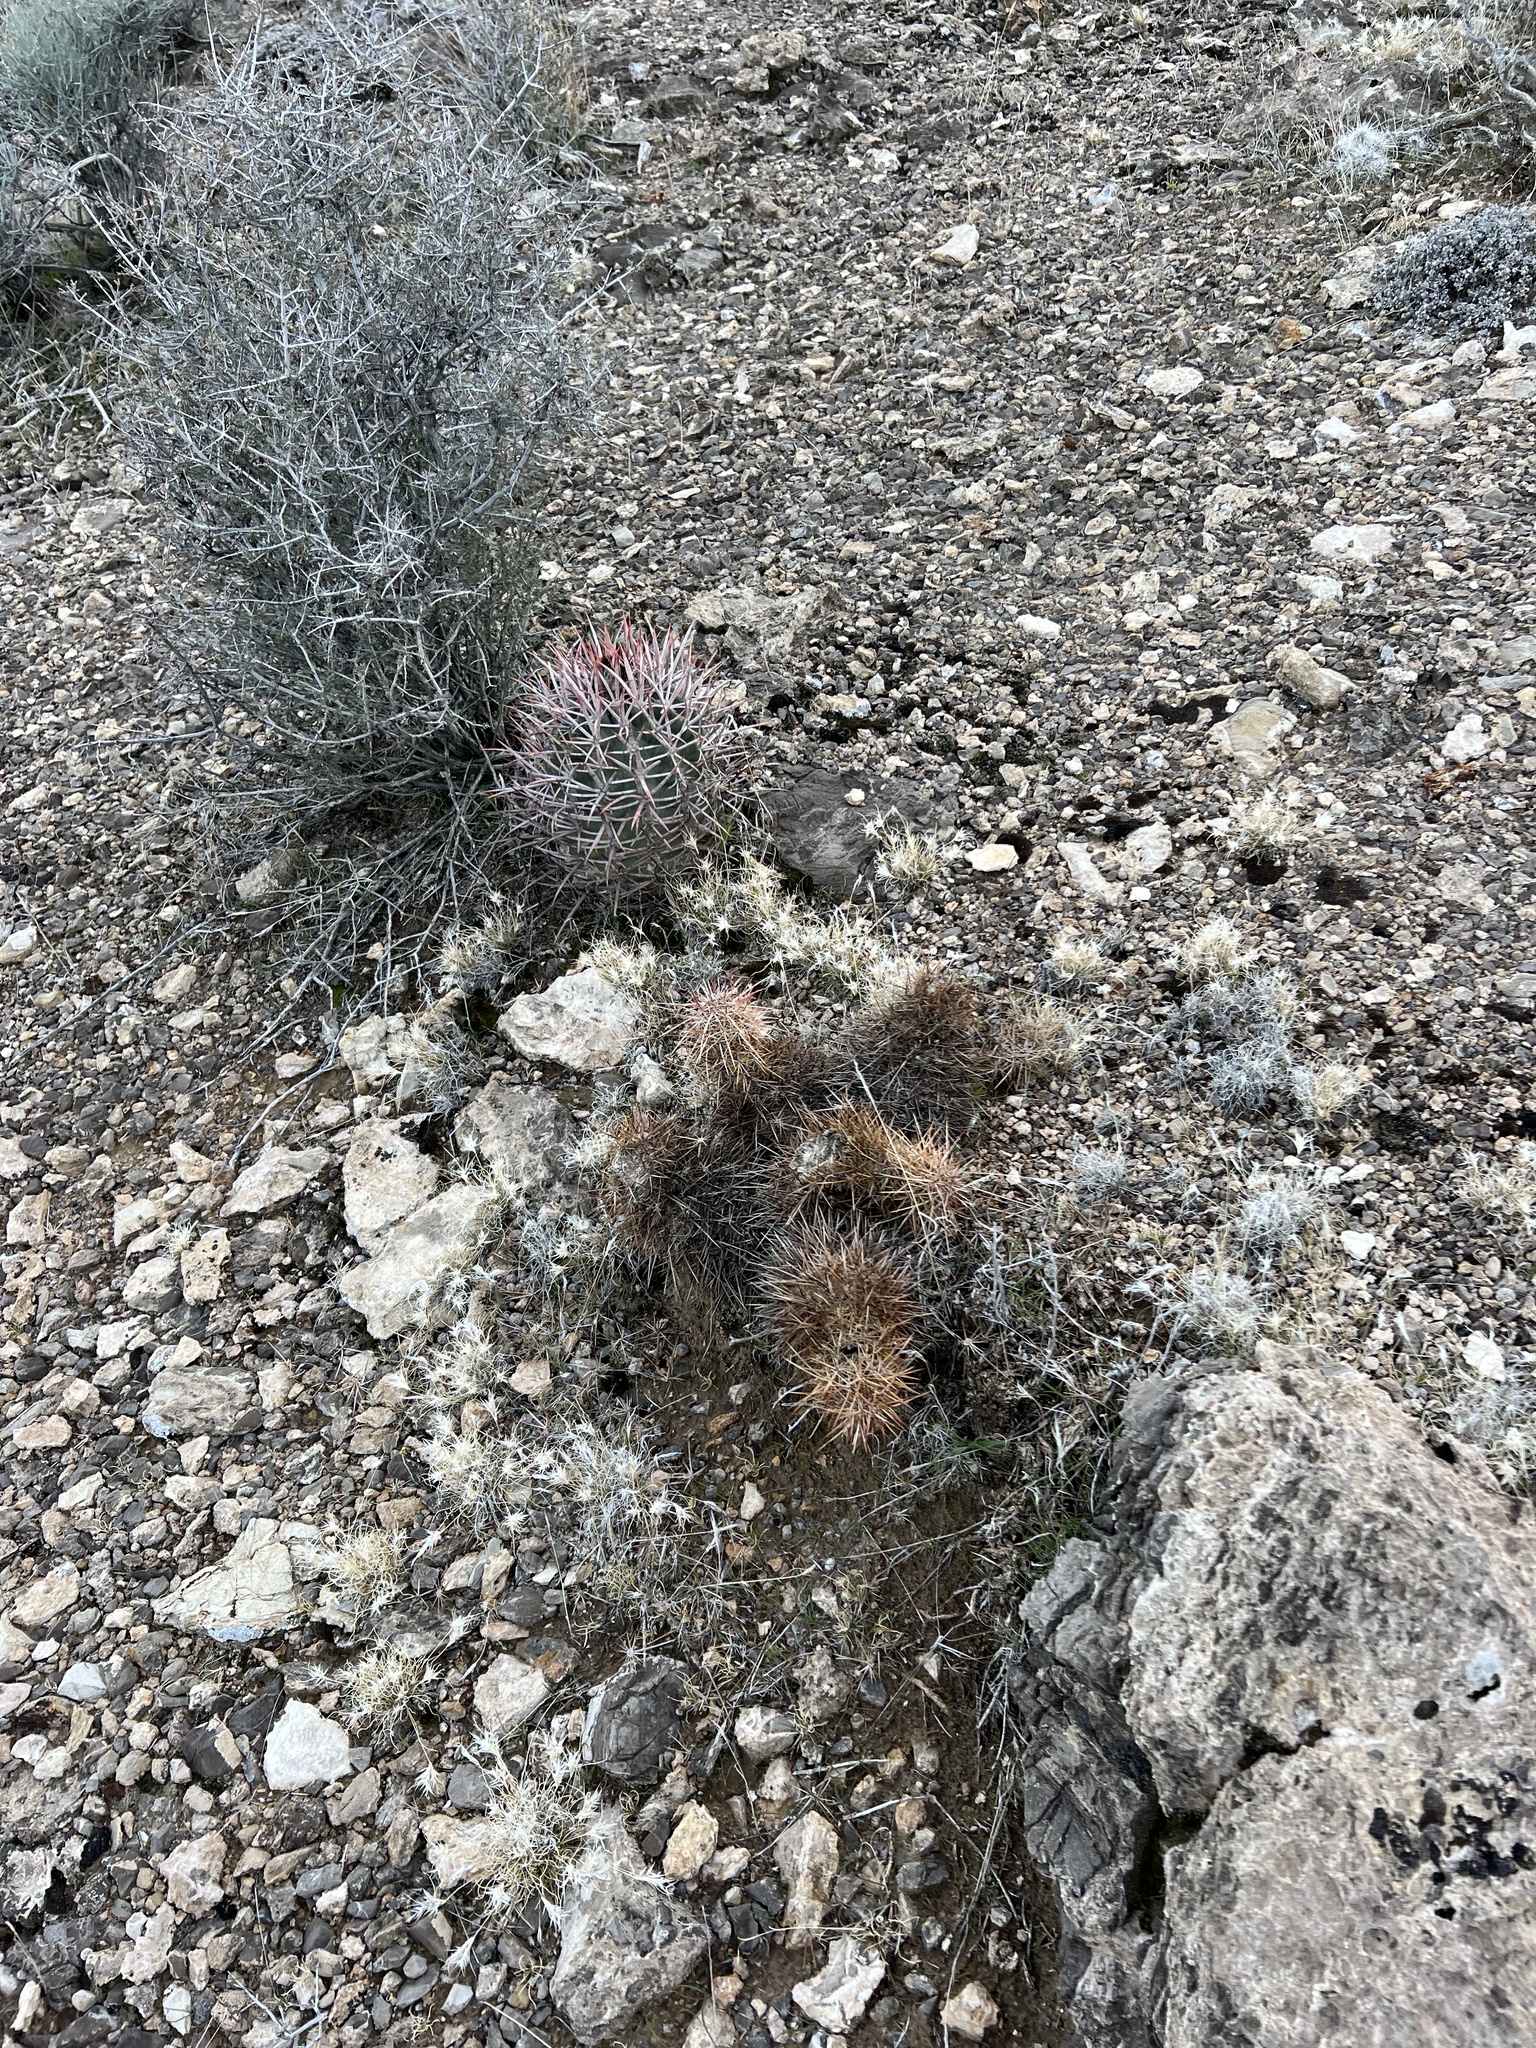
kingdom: Plantae
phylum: Tracheophyta
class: Magnoliopsida
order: Caryophyllales
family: Cactaceae
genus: Echinocereus
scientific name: Echinocereus engelmannii
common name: Engelmann's hedgehog cactus
